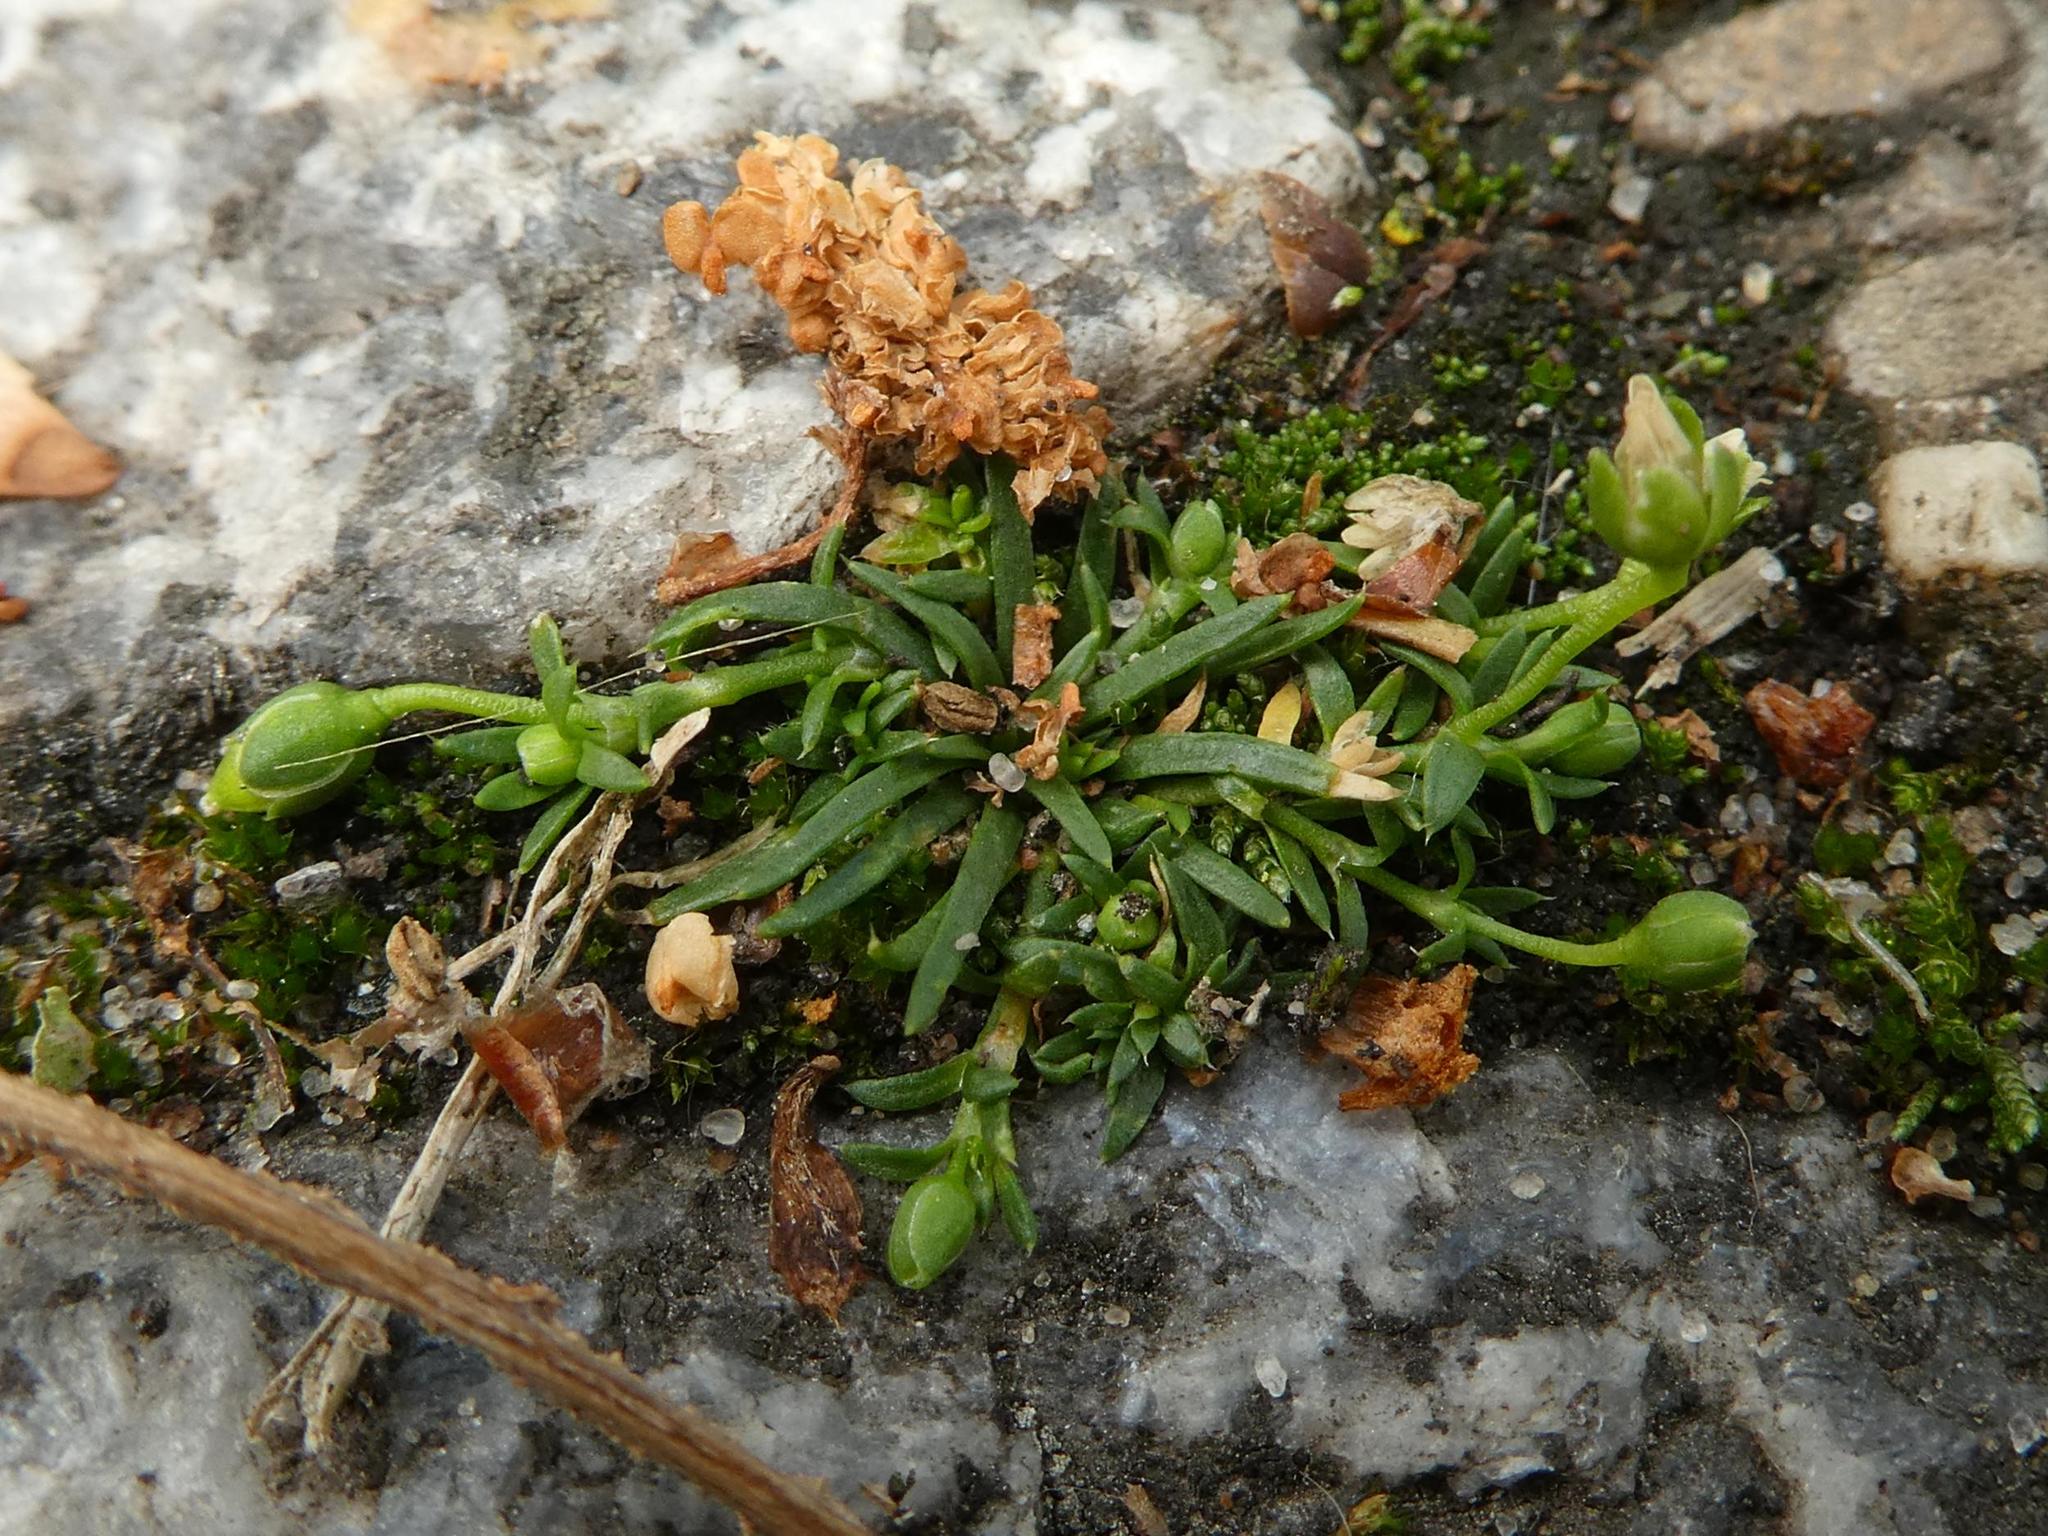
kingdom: Plantae
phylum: Tracheophyta
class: Magnoliopsida
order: Caryophyllales
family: Caryophyllaceae
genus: Sagina
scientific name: Sagina procumbens
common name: Procumbent pearlwort
